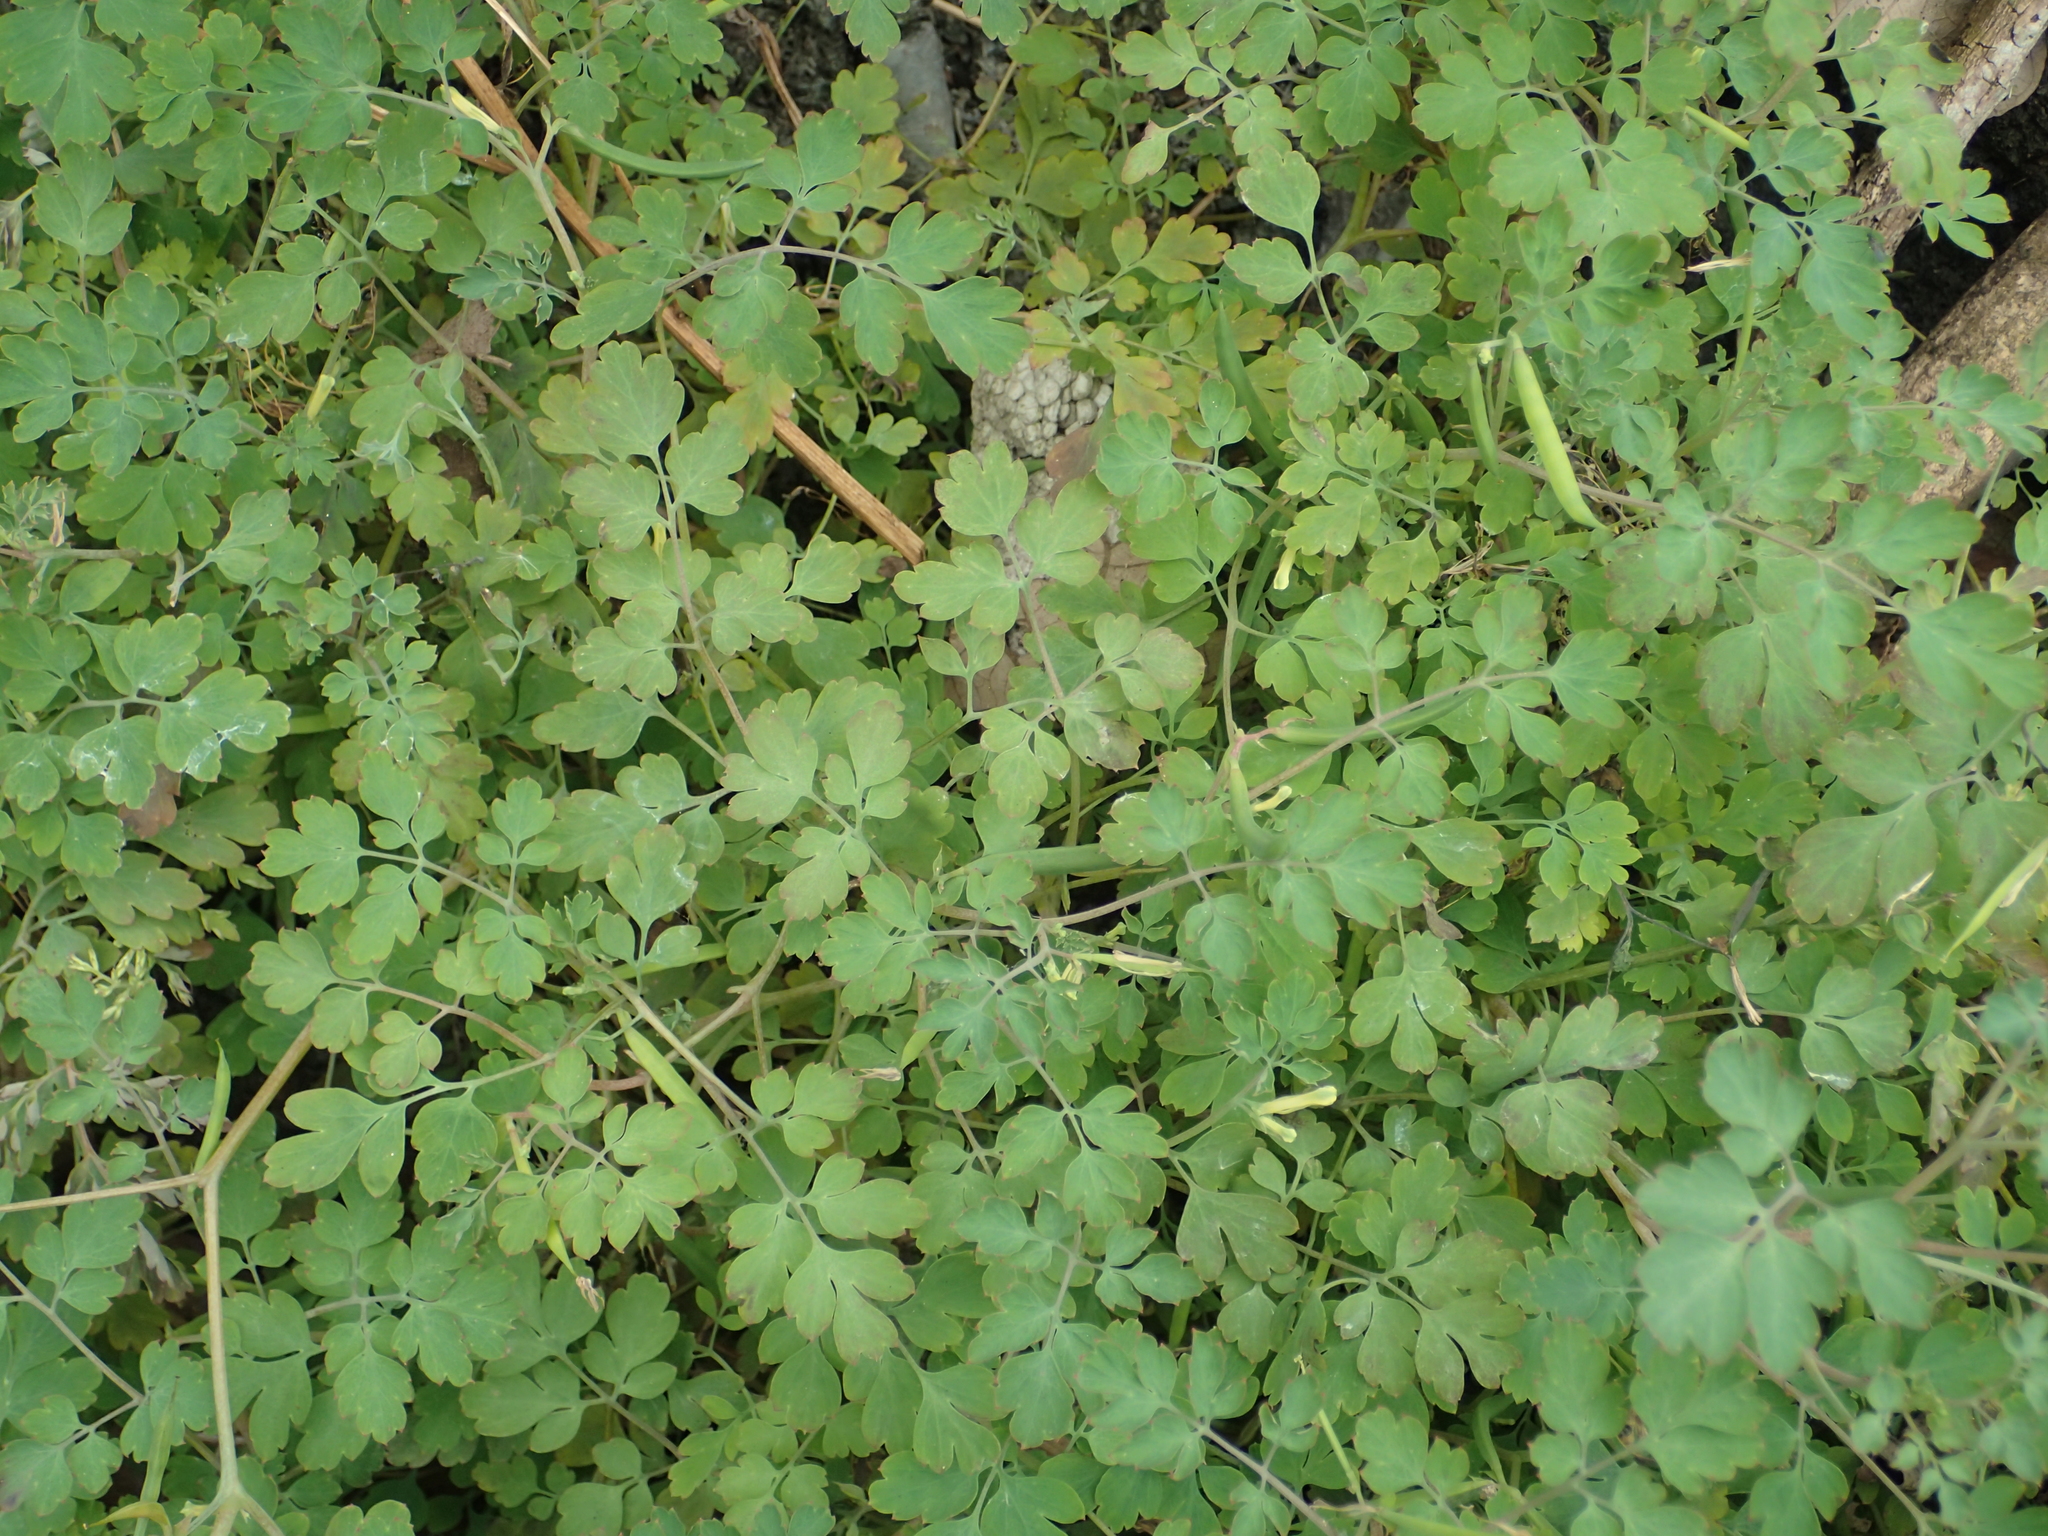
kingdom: Plantae
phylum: Tracheophyta
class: Magnoliopsida
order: Ranunculales
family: Papaveraceae
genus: Corydalis
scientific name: Corydalis balansae
